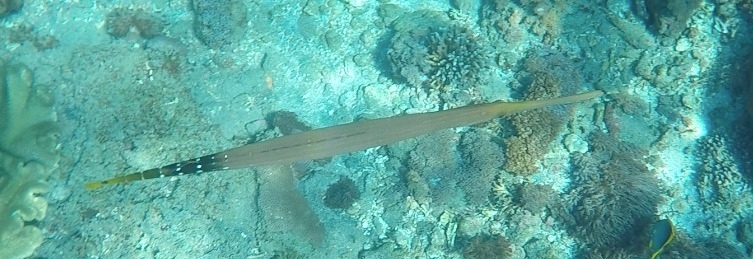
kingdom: Animalia
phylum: Chordata
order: Syngnathiformes
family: Aulostomidae
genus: Aulostomus
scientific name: Aulostomus chinensis
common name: Chinese trumpetfish
